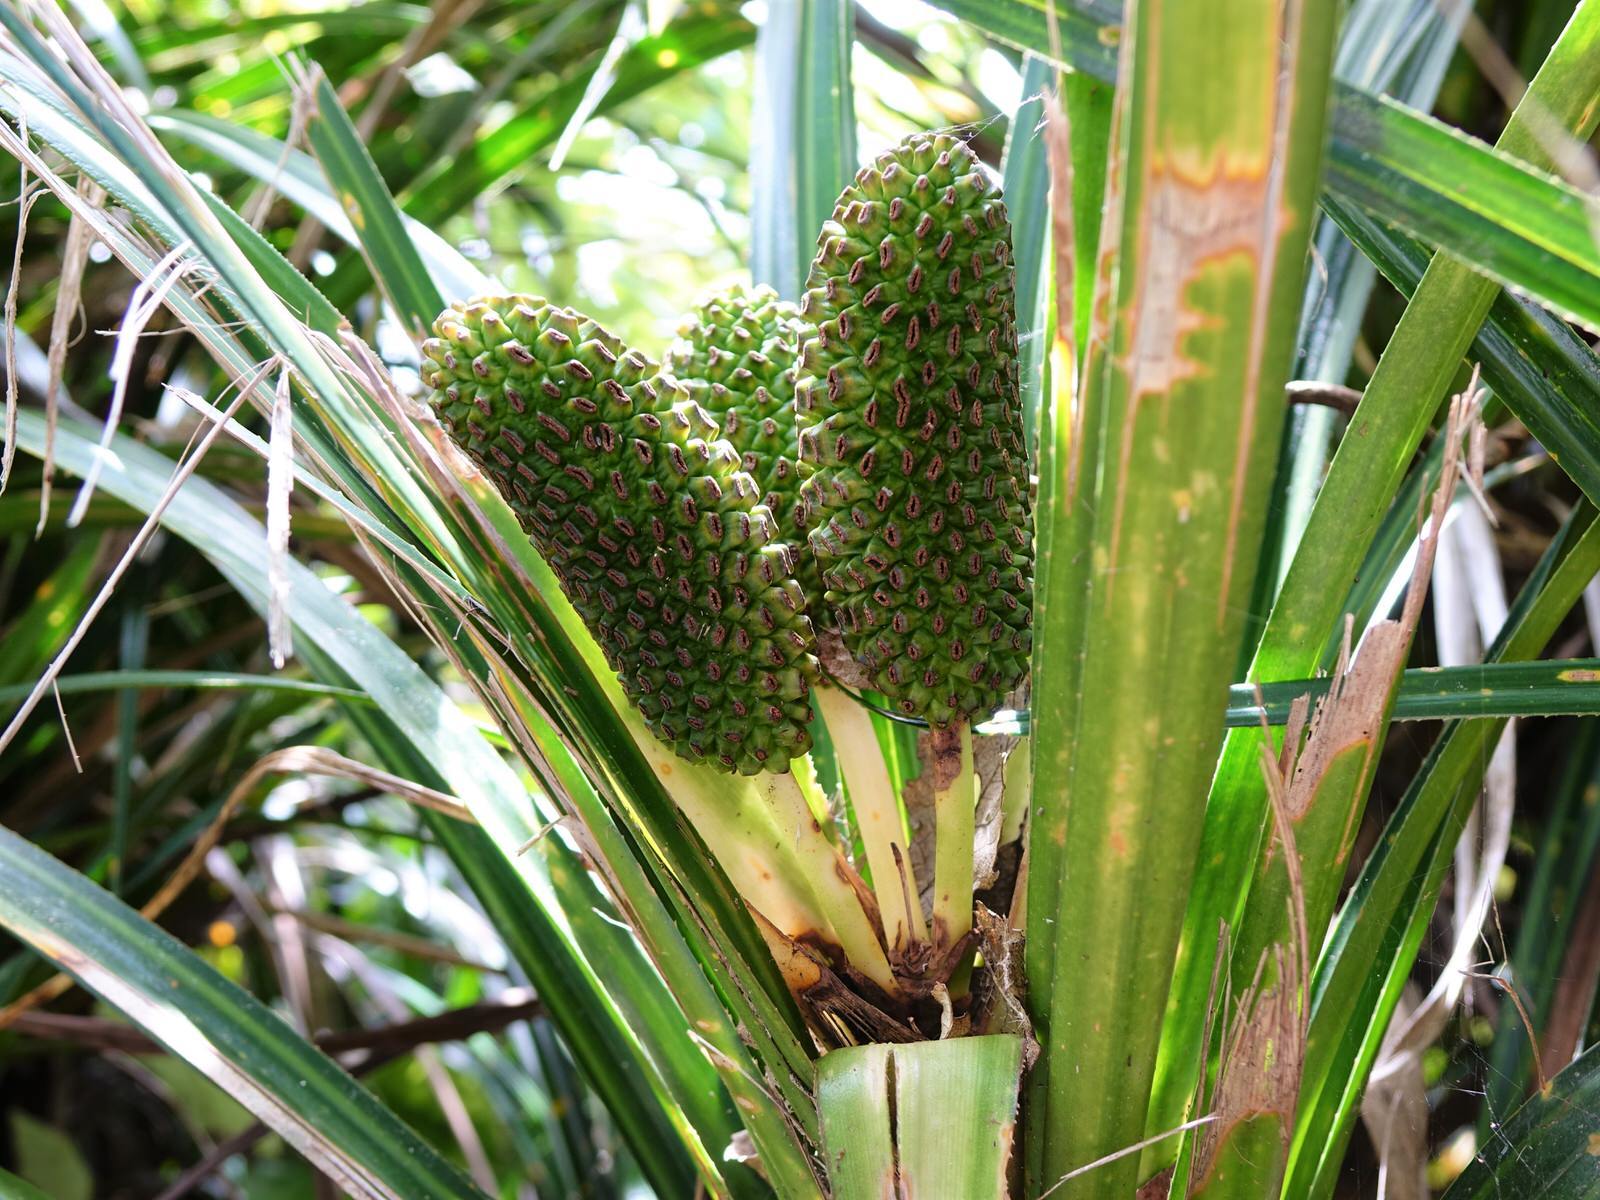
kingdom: Plantae
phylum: Tracheophyta
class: Liliopsida
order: Pandanales
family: Pandanaceae
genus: Freycinetia
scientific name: Freycinetia banksii
